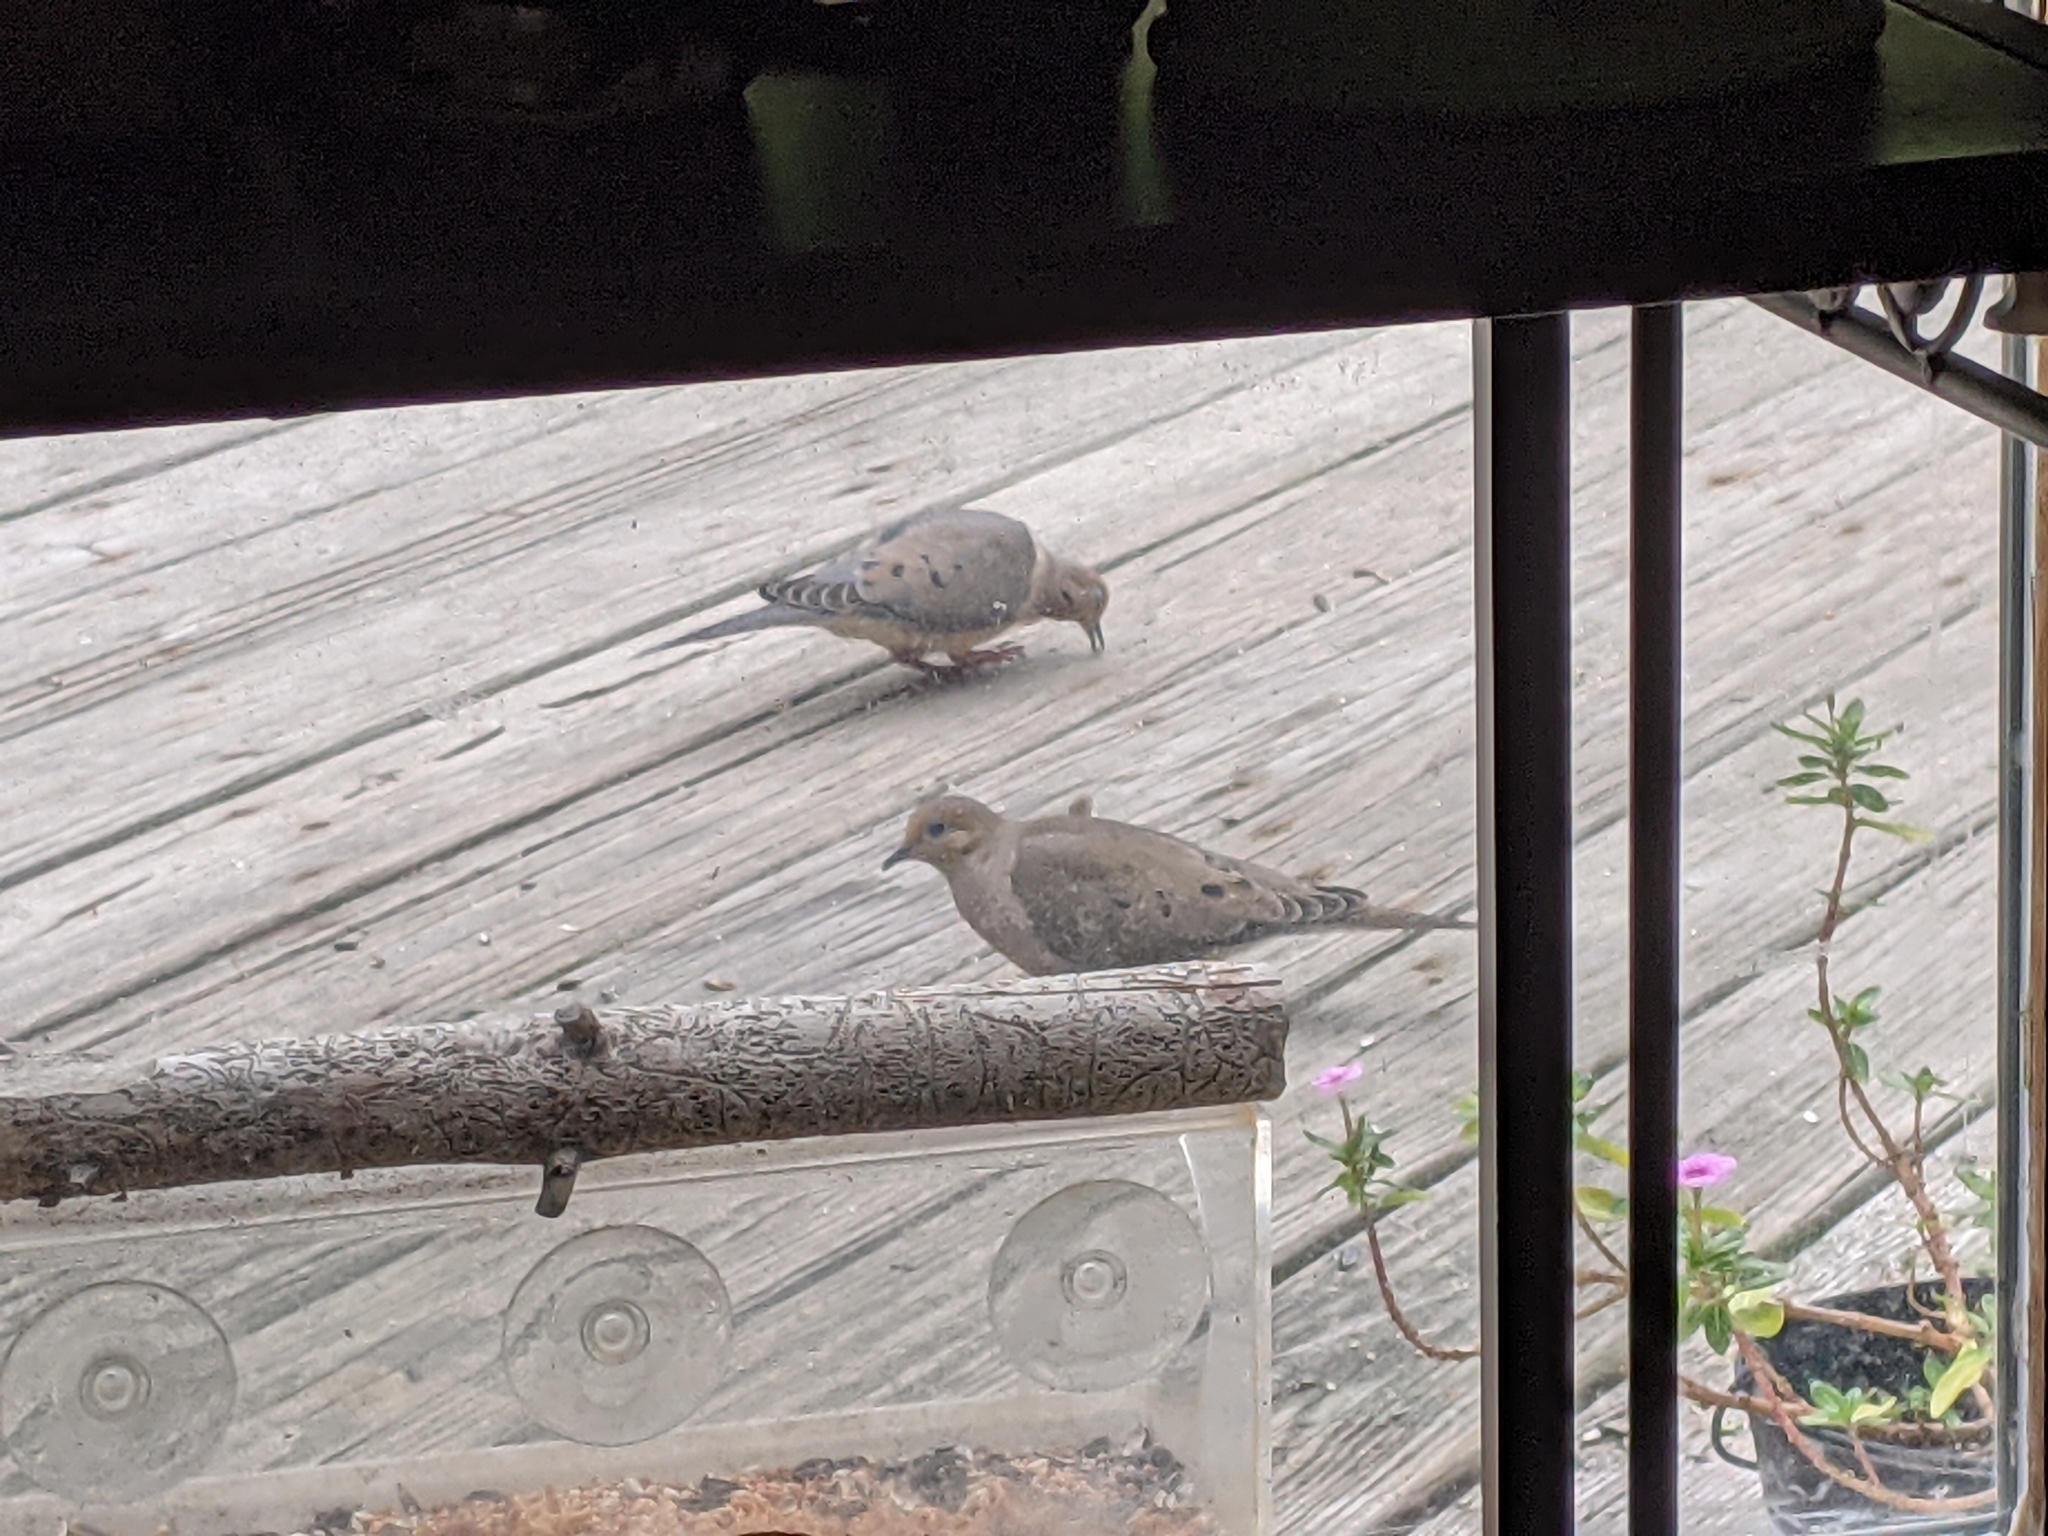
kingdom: Animalia
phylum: Chordata
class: Aves
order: Columbiformes
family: Columbidae
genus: Zenaida
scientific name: Zenaida macroura
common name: Mourning dove
